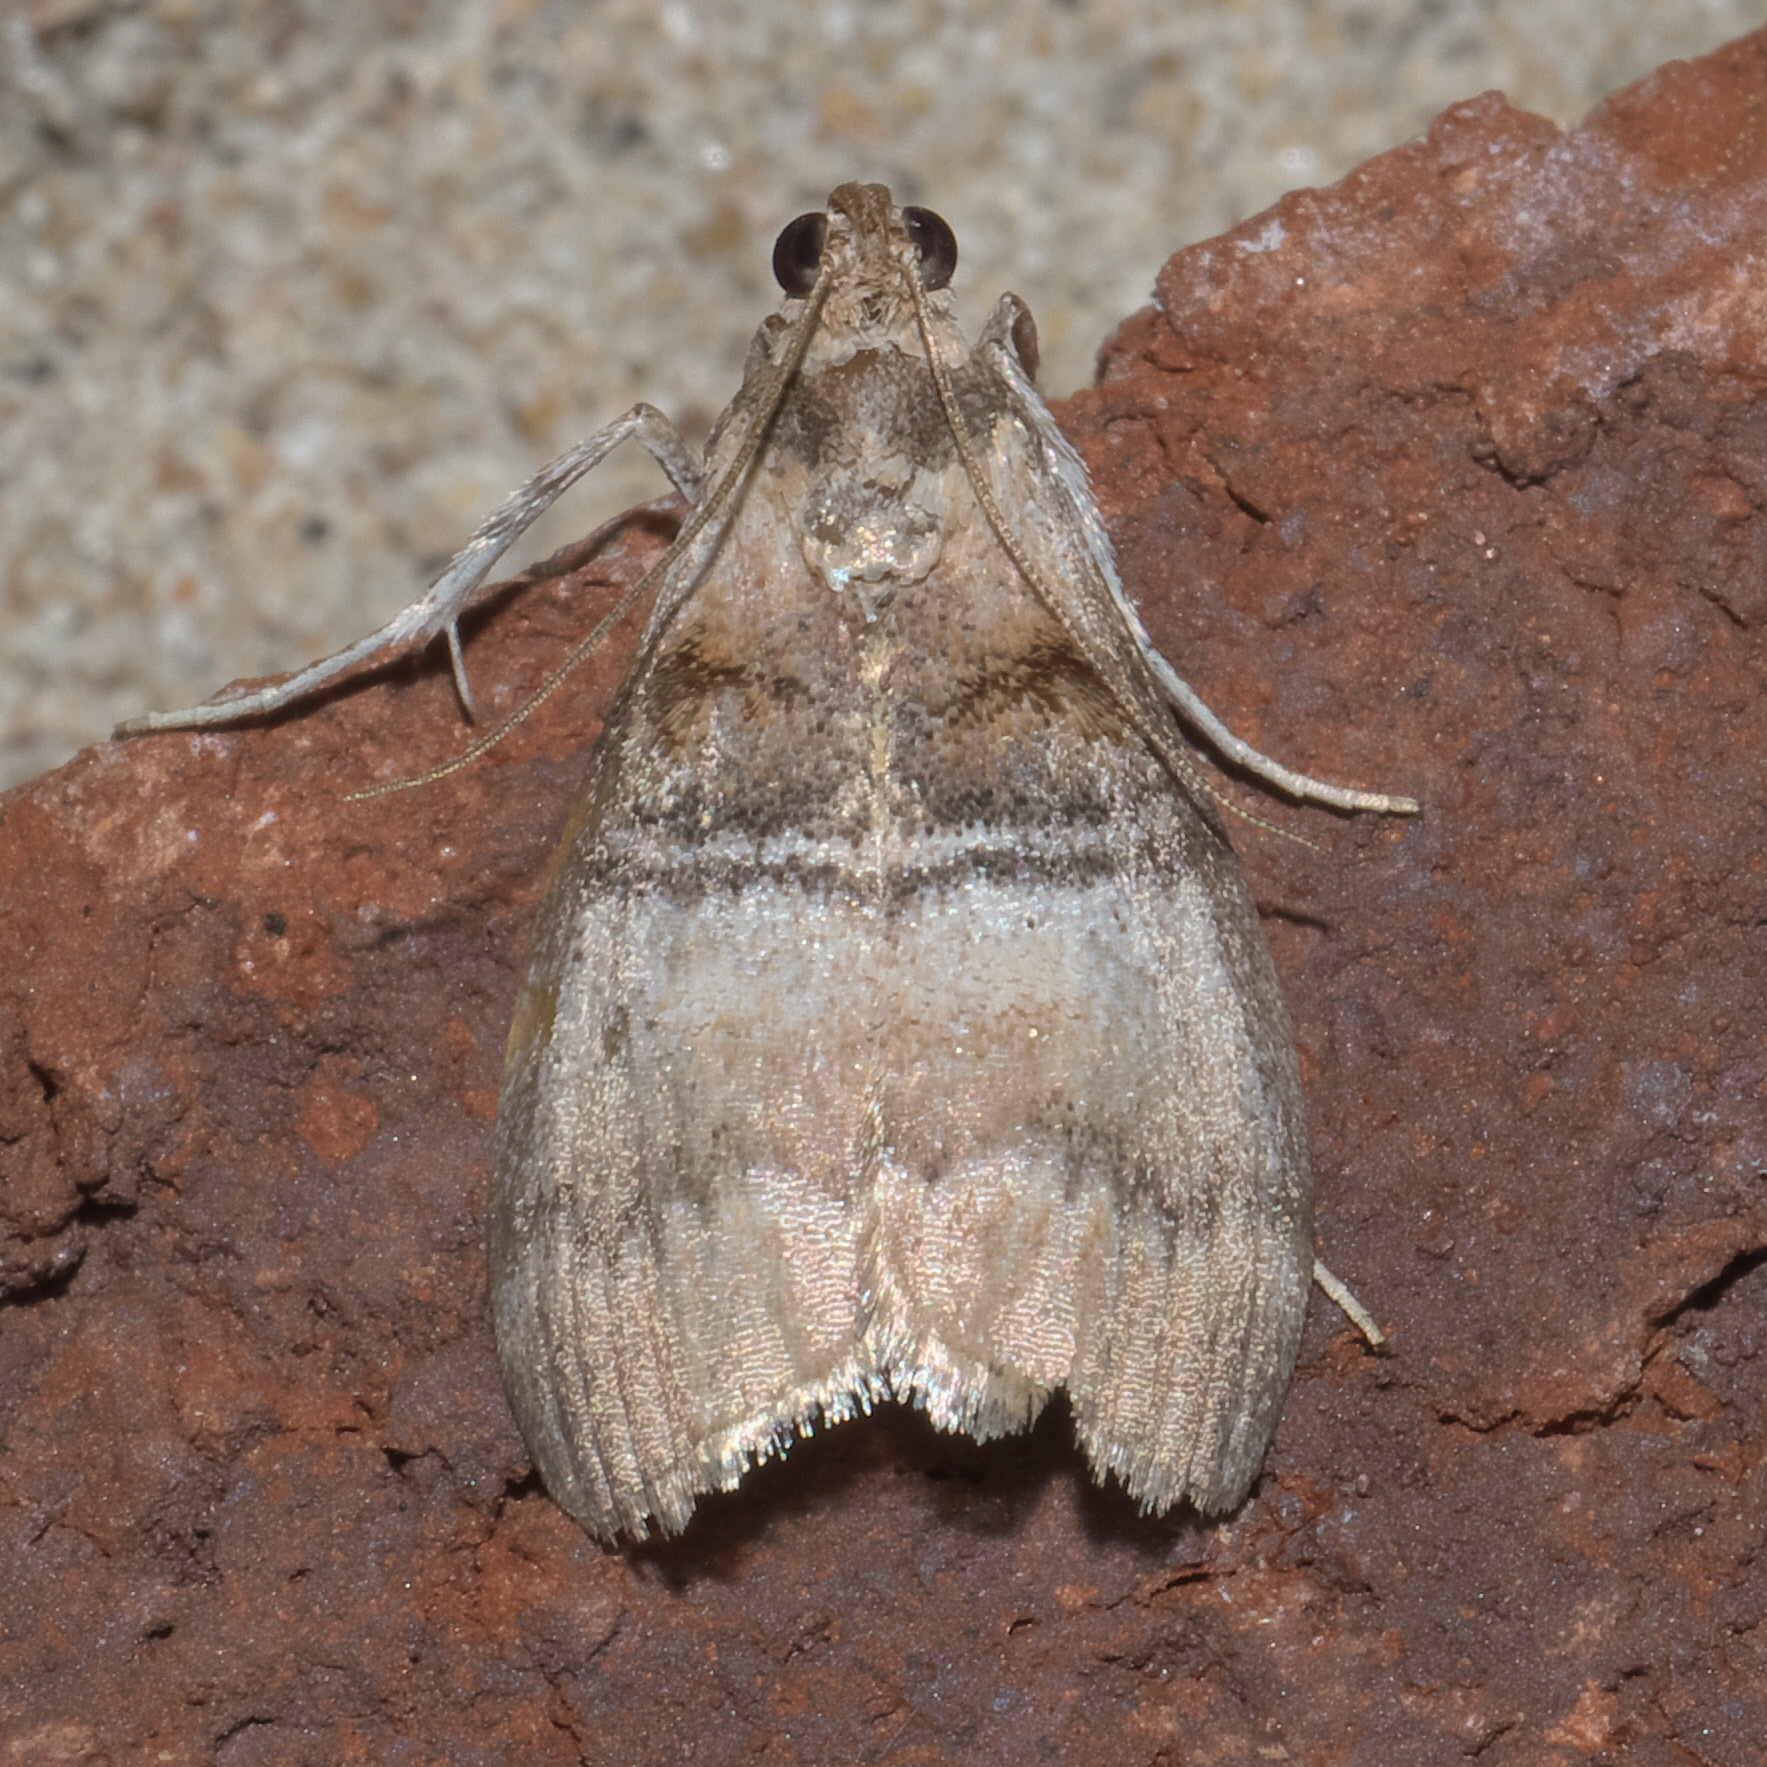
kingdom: Animalia
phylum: Arthropoda
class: Insecta
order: Lepidoptera
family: Pyralidae
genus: Pococera
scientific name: Pococera militella
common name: Sycamore webworm moth
